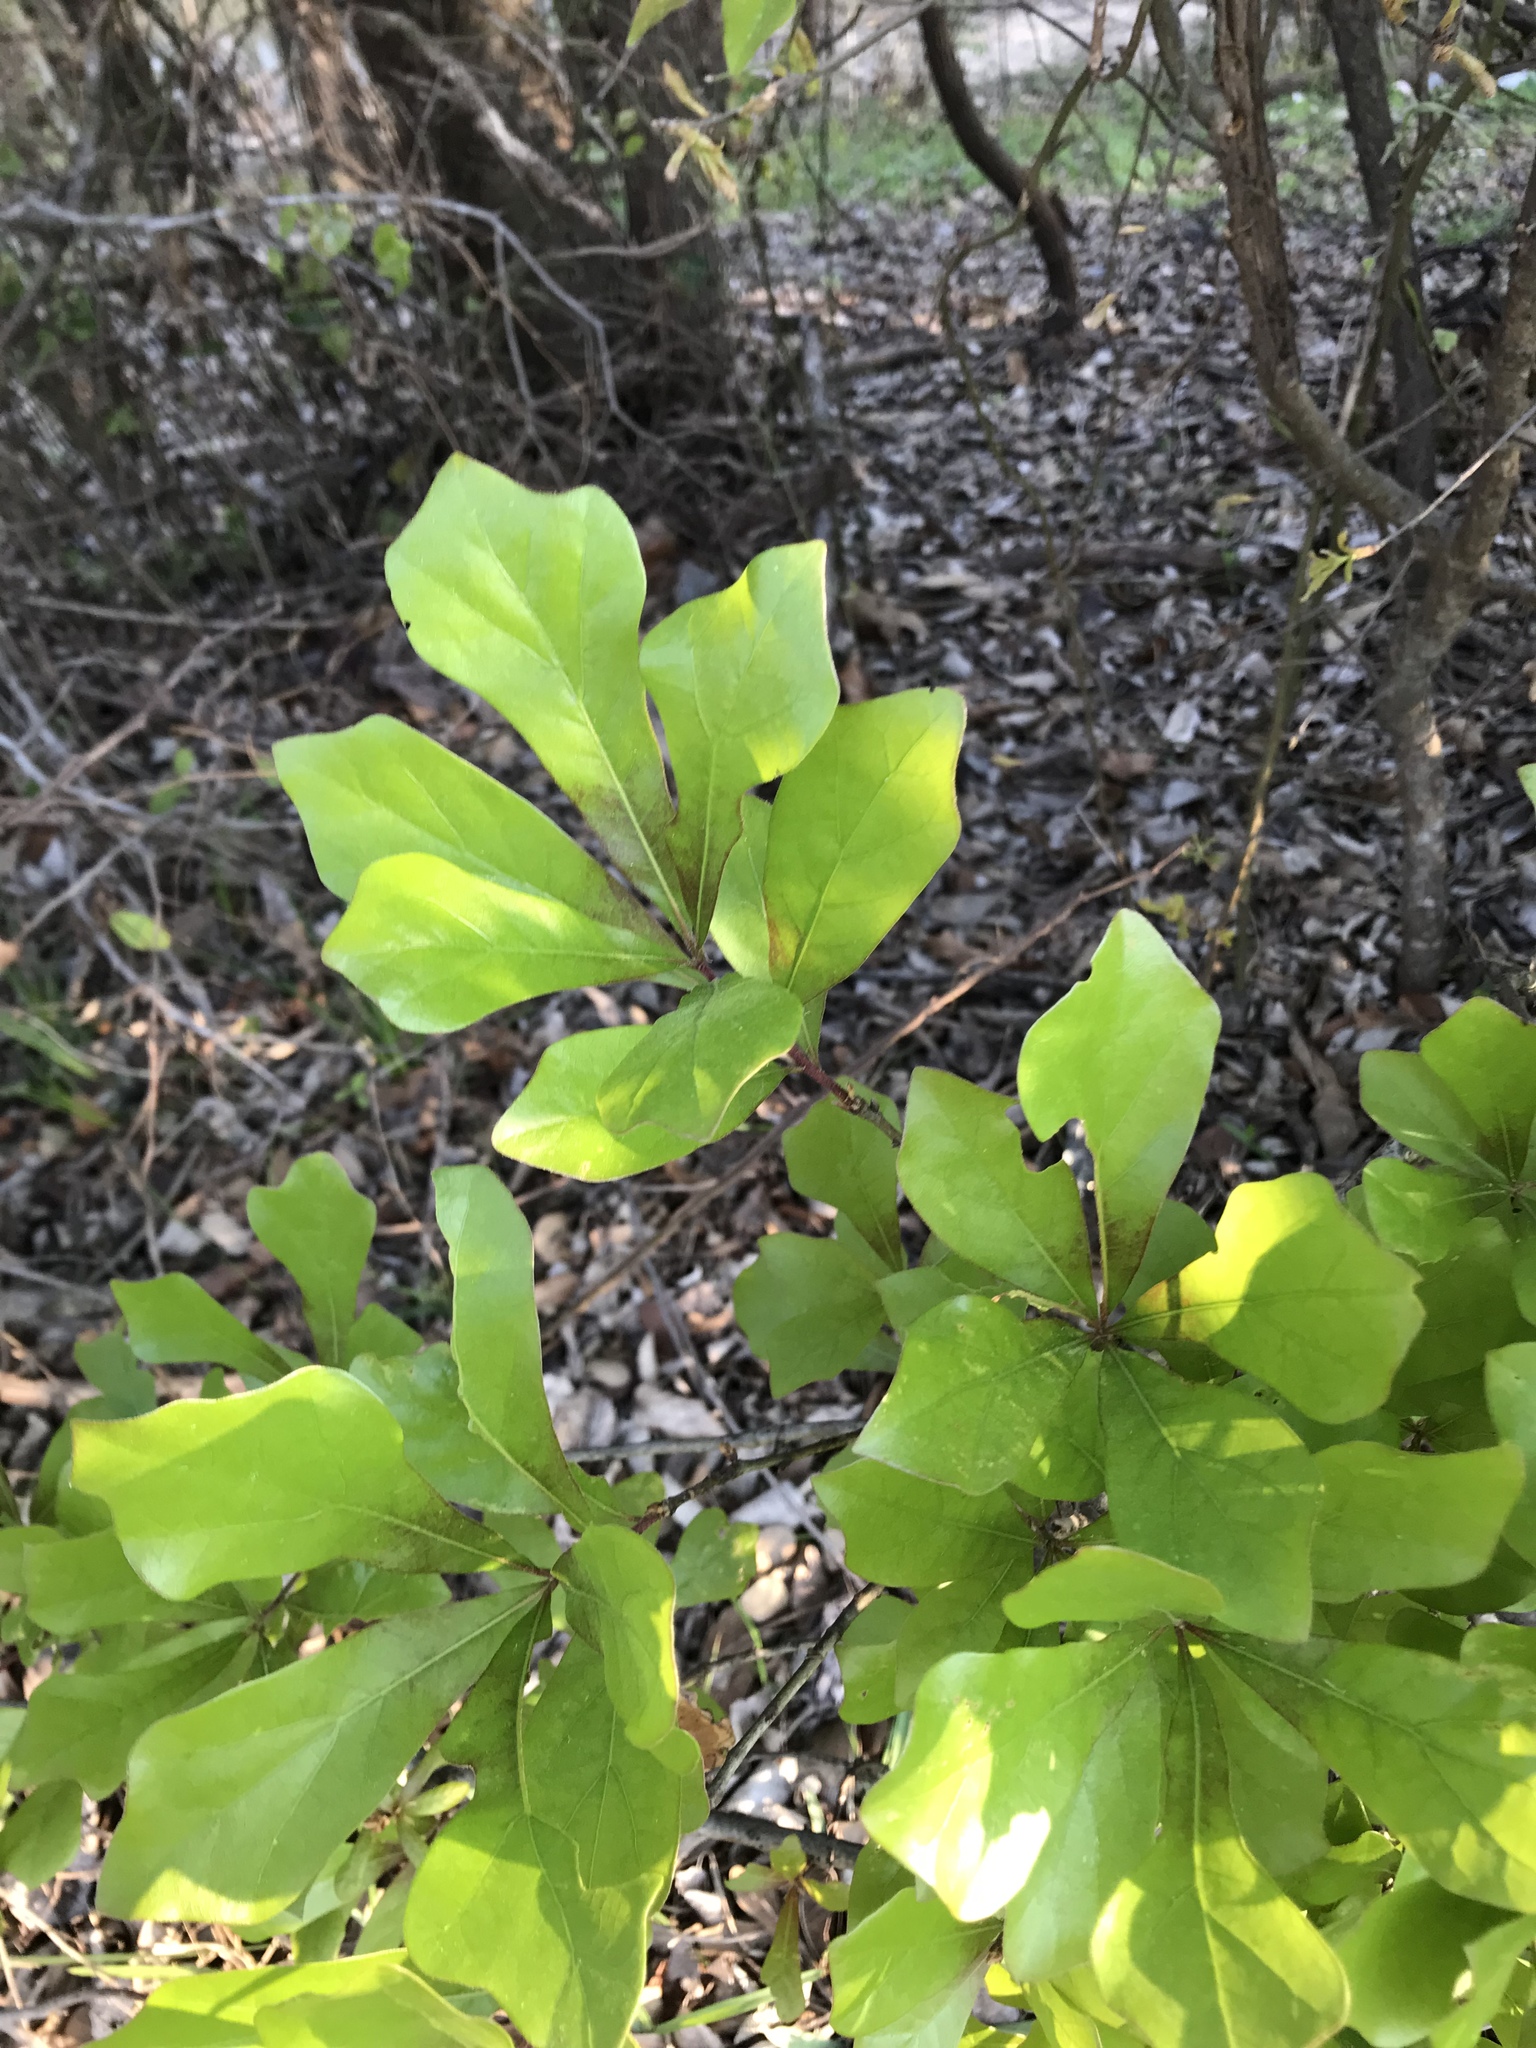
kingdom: Plantae
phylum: Tracheophyta
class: Magnoliopsida
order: Fagales
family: Fagaceae
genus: Quercus
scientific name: Quercus nigra
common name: Water oak
